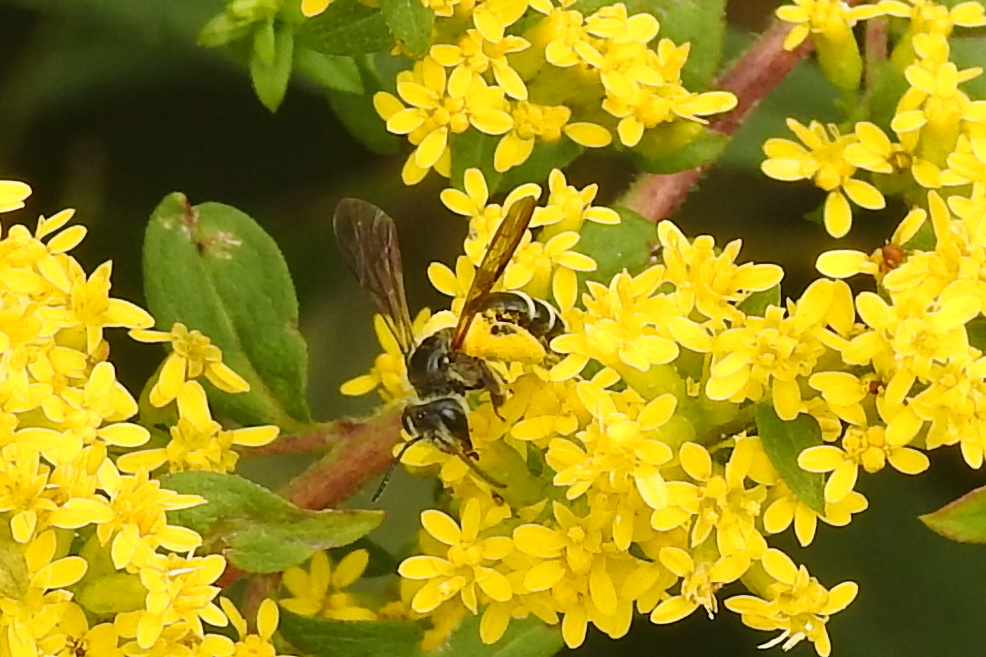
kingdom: Animalia
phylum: Arthropoda
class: Insecta
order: Hymenoptera
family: Andrenidae
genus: Andrena
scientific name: Andrena nubecula
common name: Cloudy-winged mining bee
